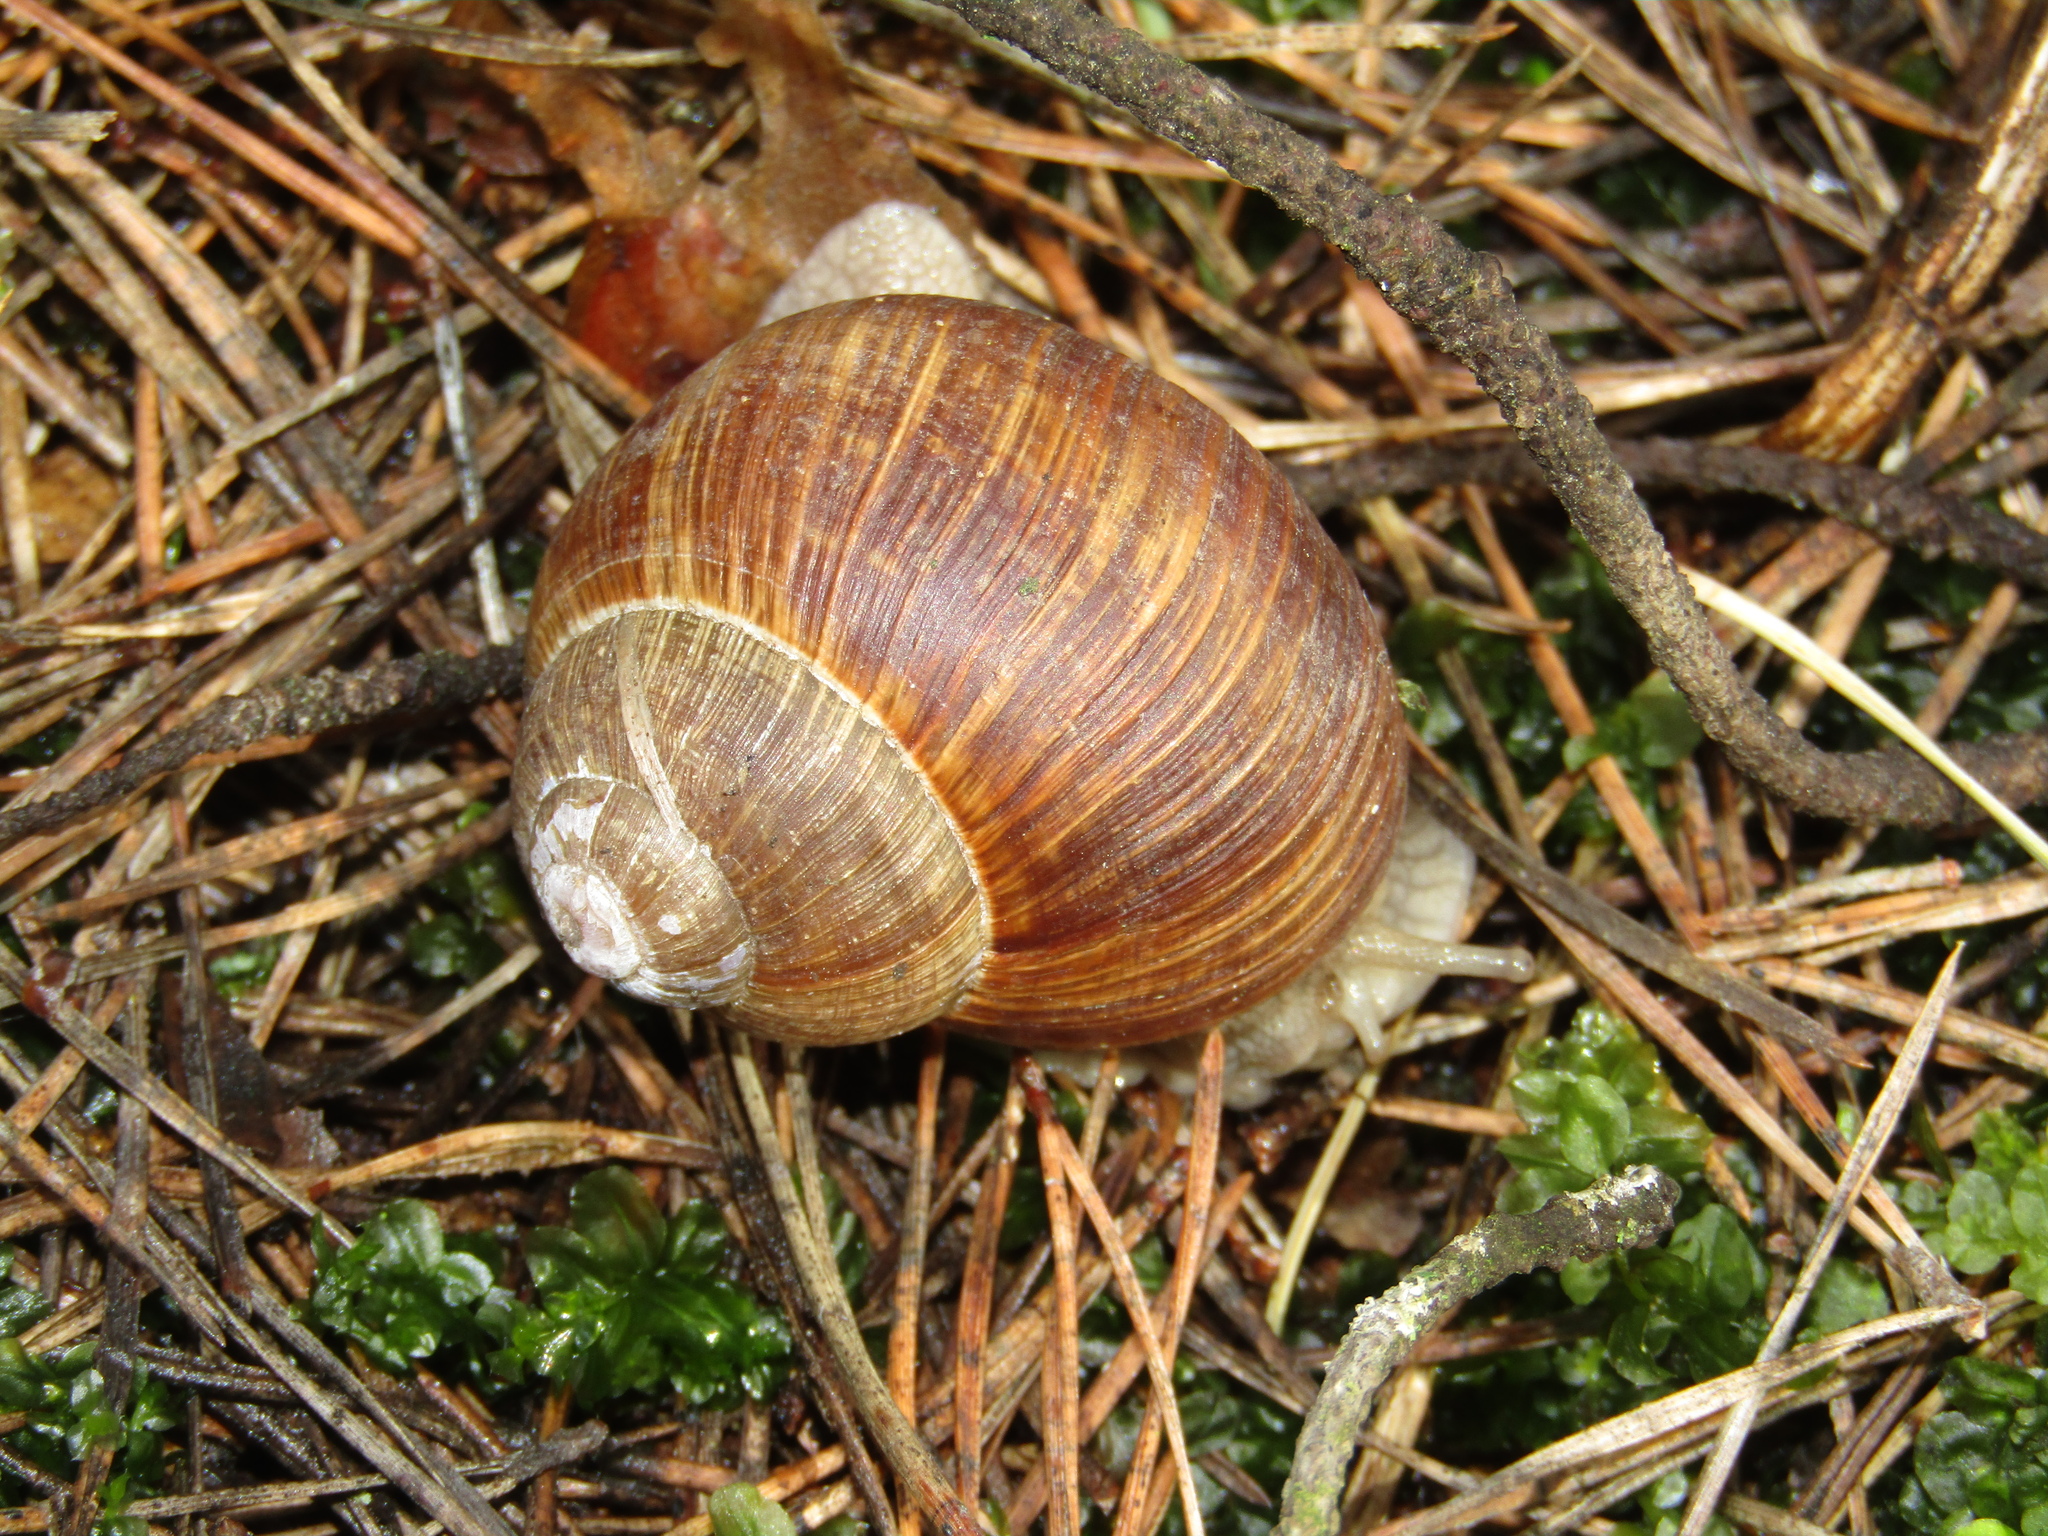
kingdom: Animalia
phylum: Mollusca
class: Gastropoda
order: Stylommatophora
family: Helicidae
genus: Helix
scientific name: Helix pomatia
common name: Roman snail
